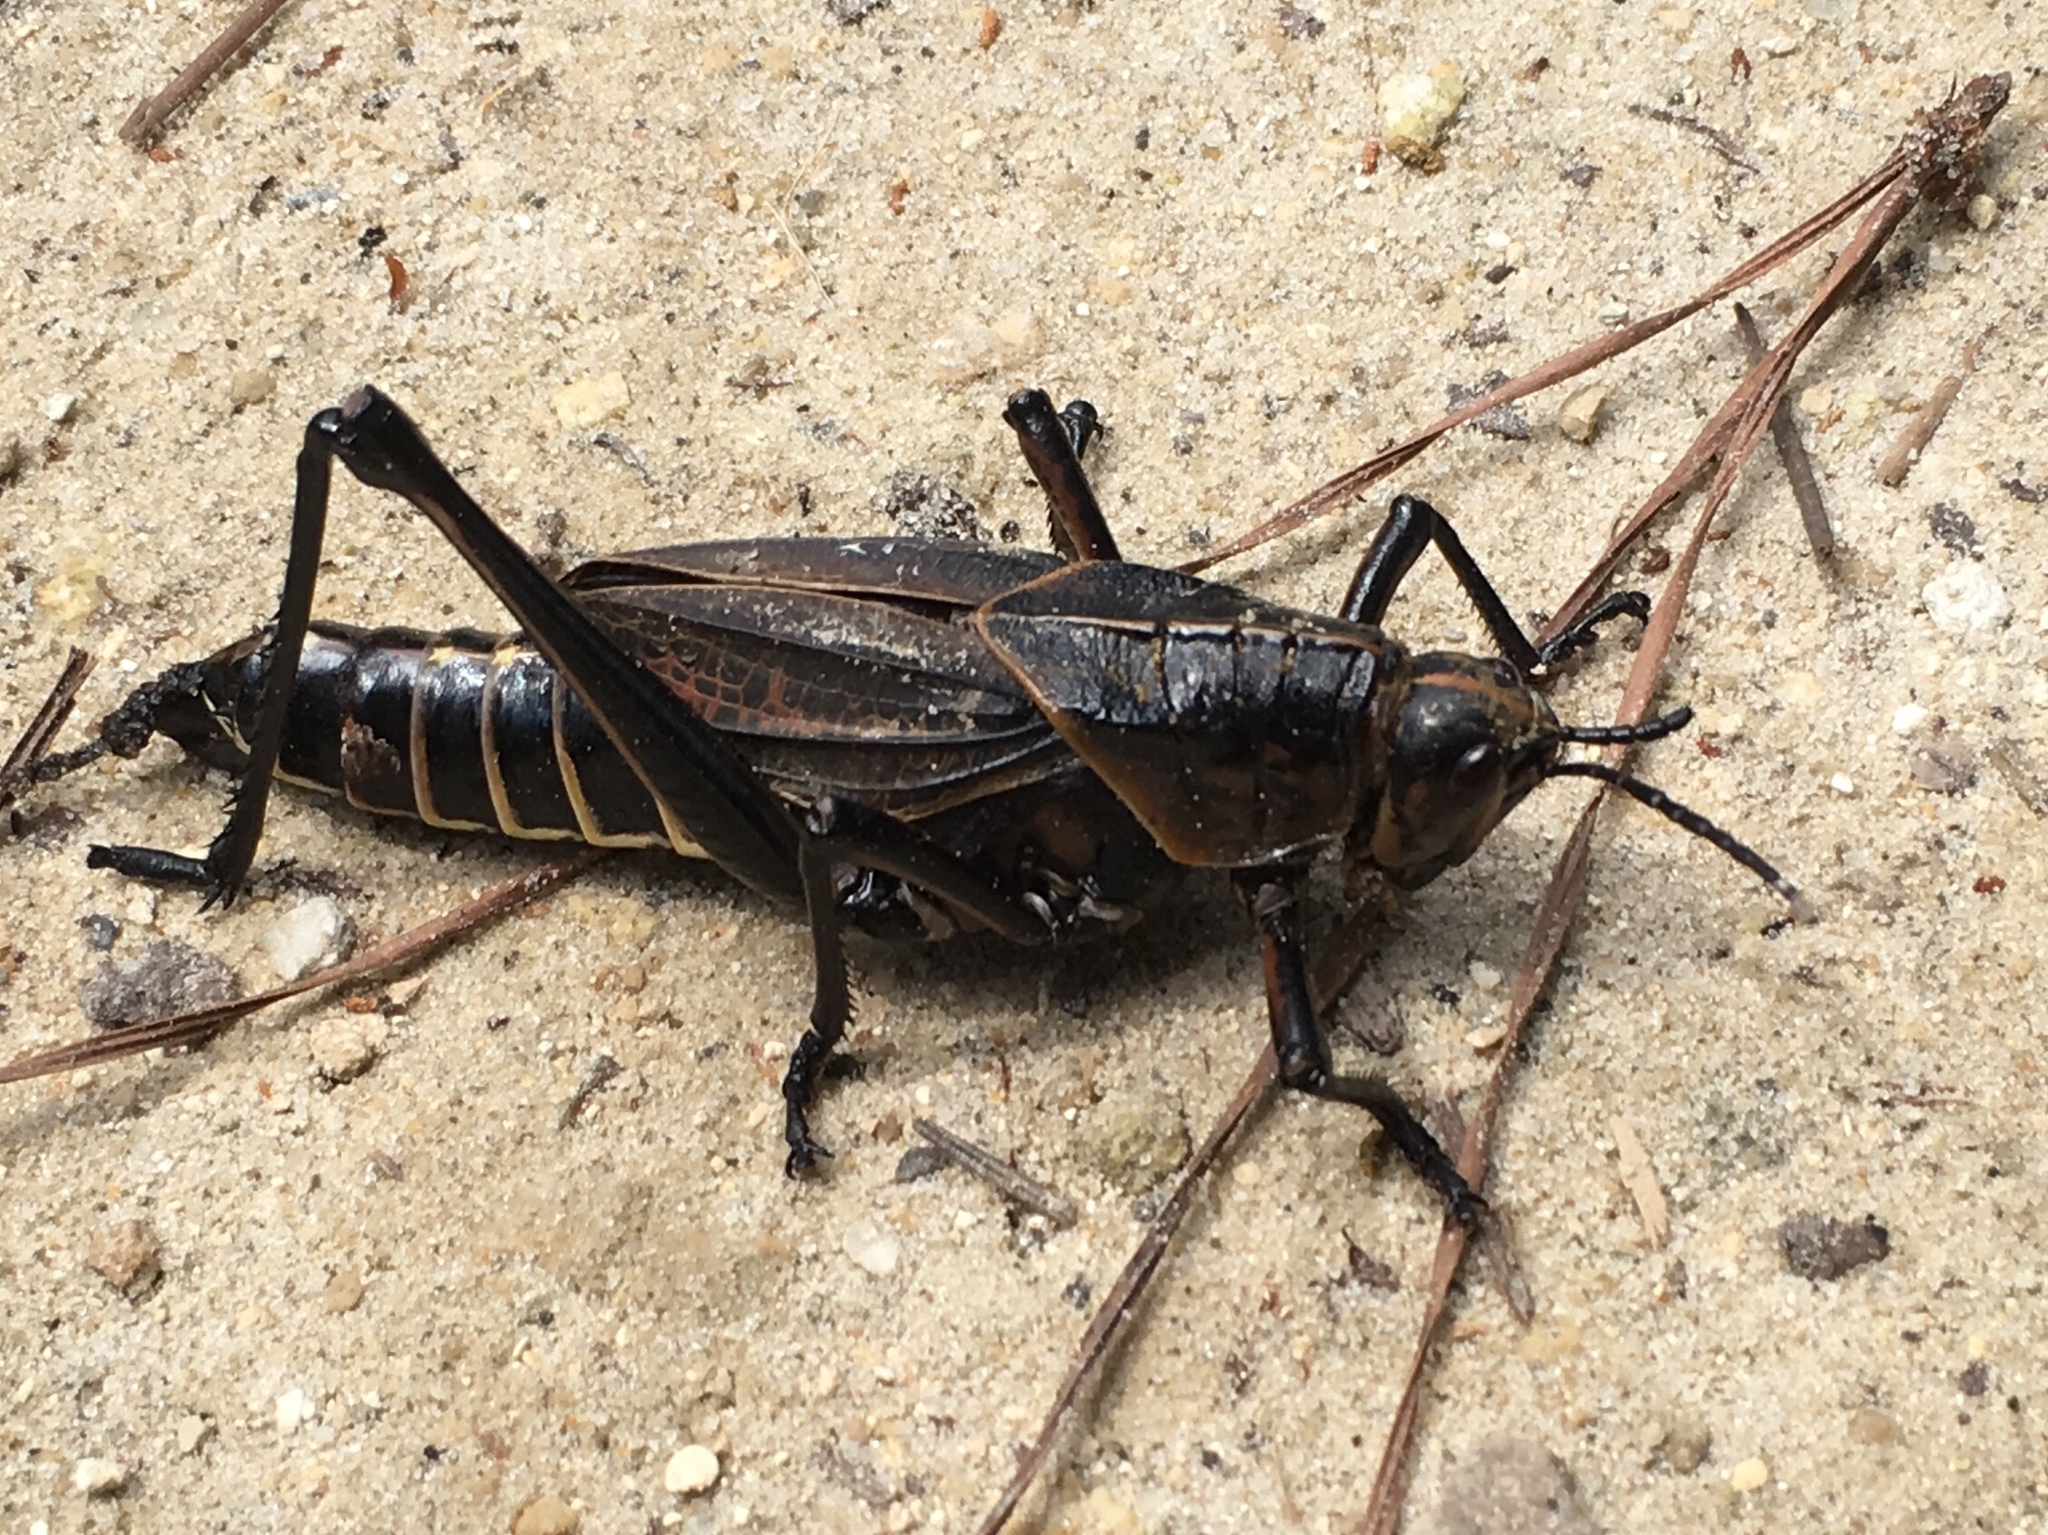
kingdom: Animalia
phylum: Arthropoda
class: Insecta
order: Orthoptera
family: Romaleidae
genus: Romalea
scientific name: Romalea microptera
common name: Eastern lubber grasshopper
